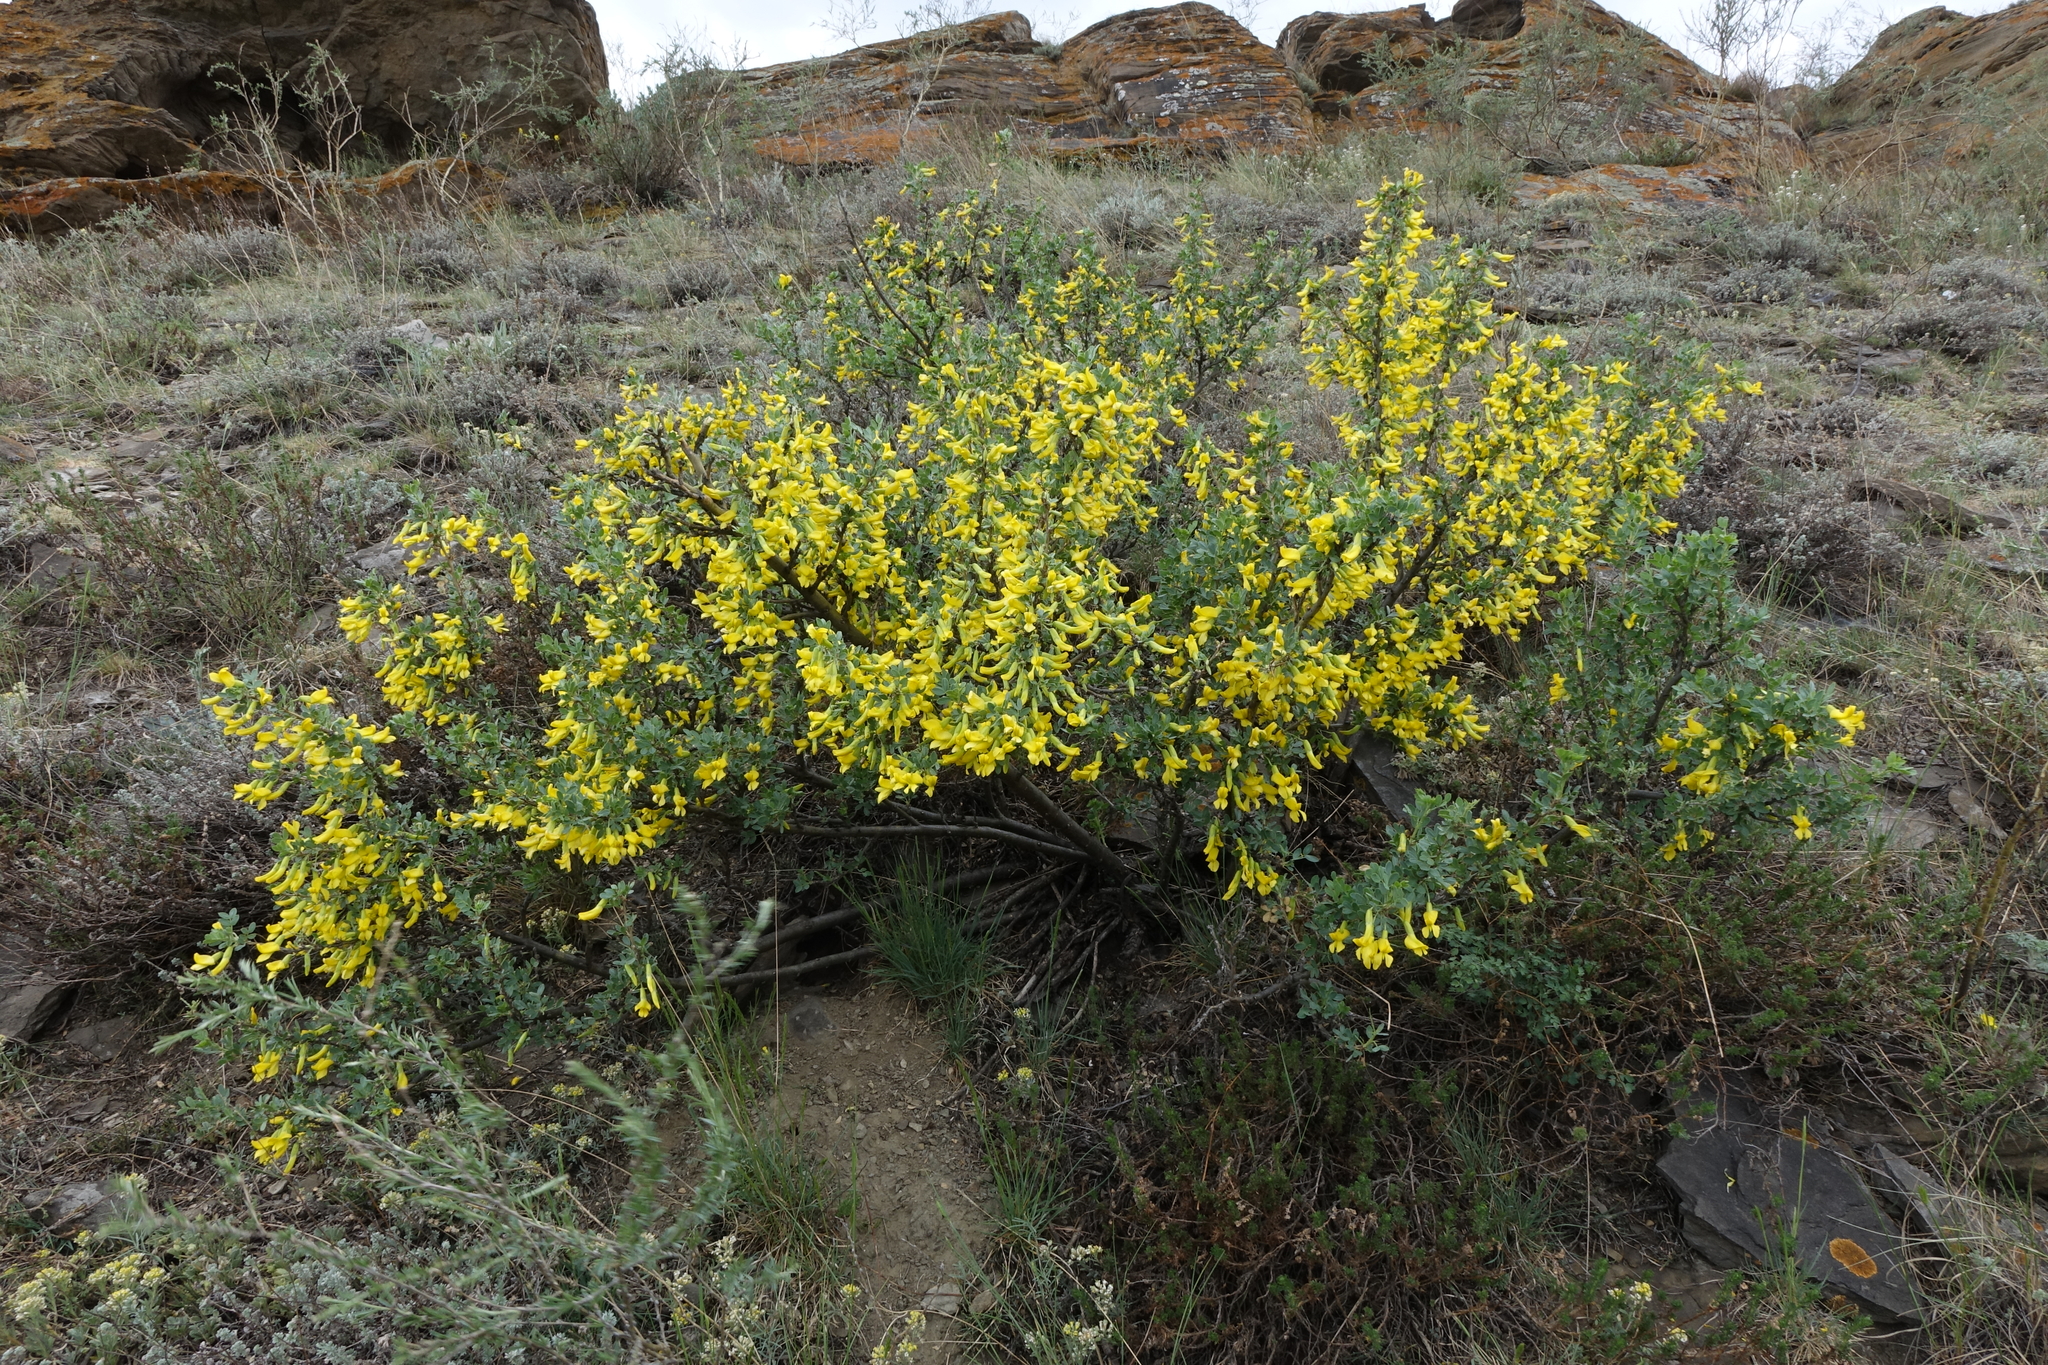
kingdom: Plantae
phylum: Tracheophyta
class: Magnoliopsida
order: Fabales
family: Fabaceae
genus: Caragana
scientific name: Caragana bungei
